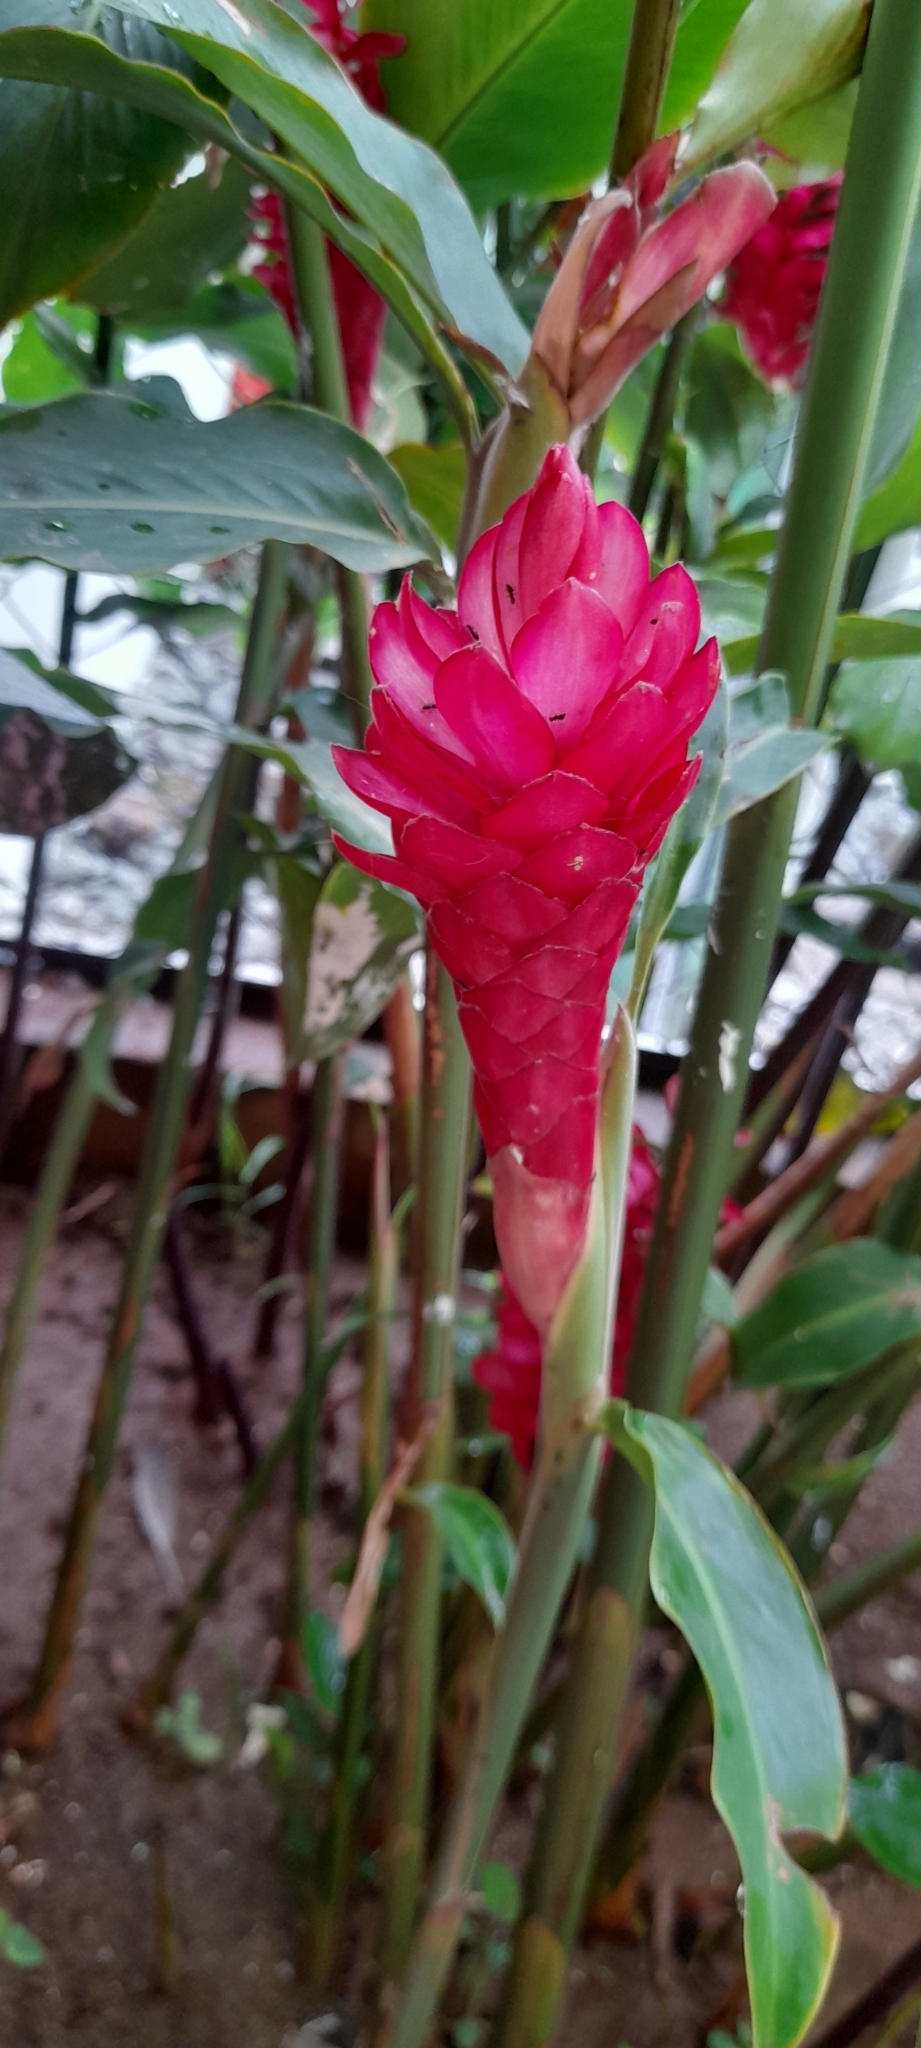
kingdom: Plantae
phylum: Tracheophyta
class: Liliopsida
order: Zingiberales
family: Zingiberaceae
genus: Alpinia
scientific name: Alpinia purpurata
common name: Red ginger
